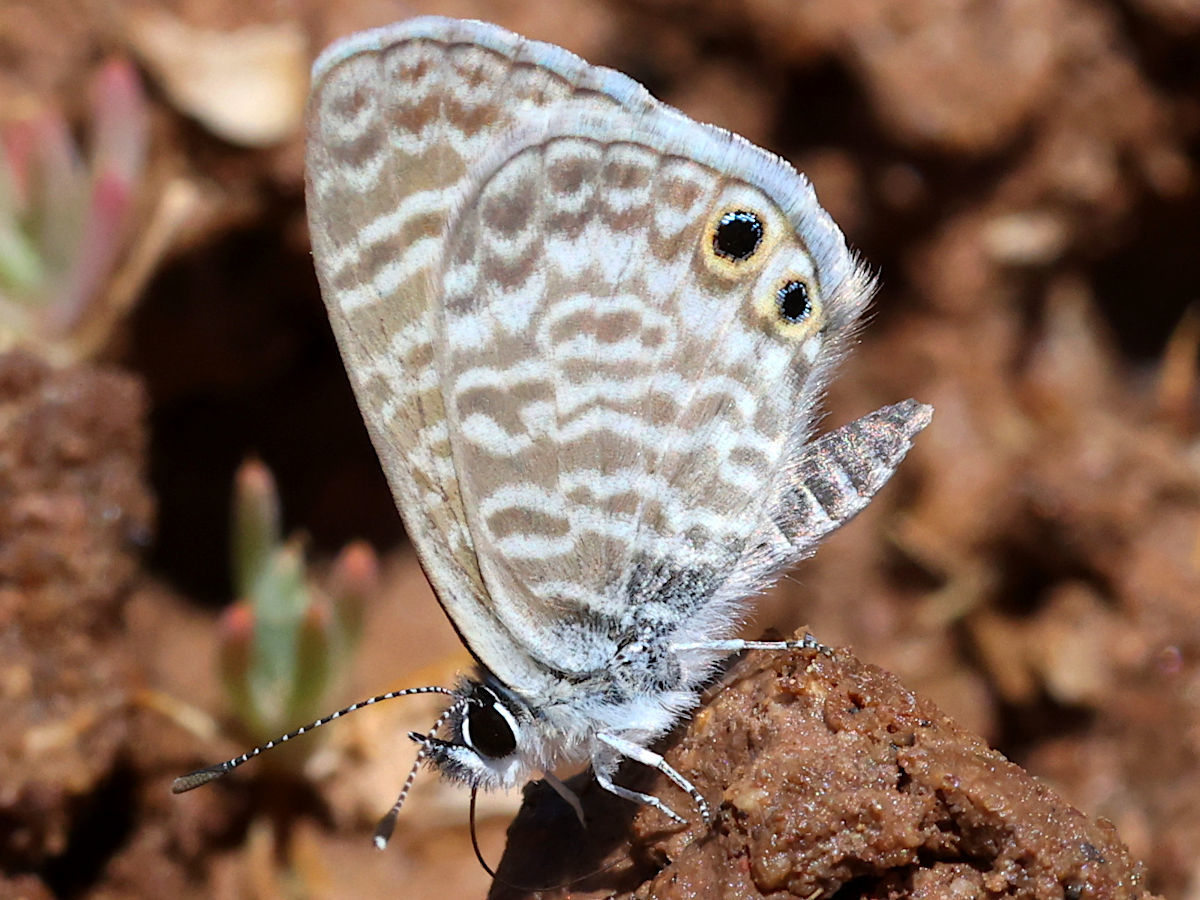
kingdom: Animalia
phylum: Arthropoda
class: Insecta
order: Lepidoptera
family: Lycaenidae
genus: Leptotes
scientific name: Leptotes marina
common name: Marine blue
